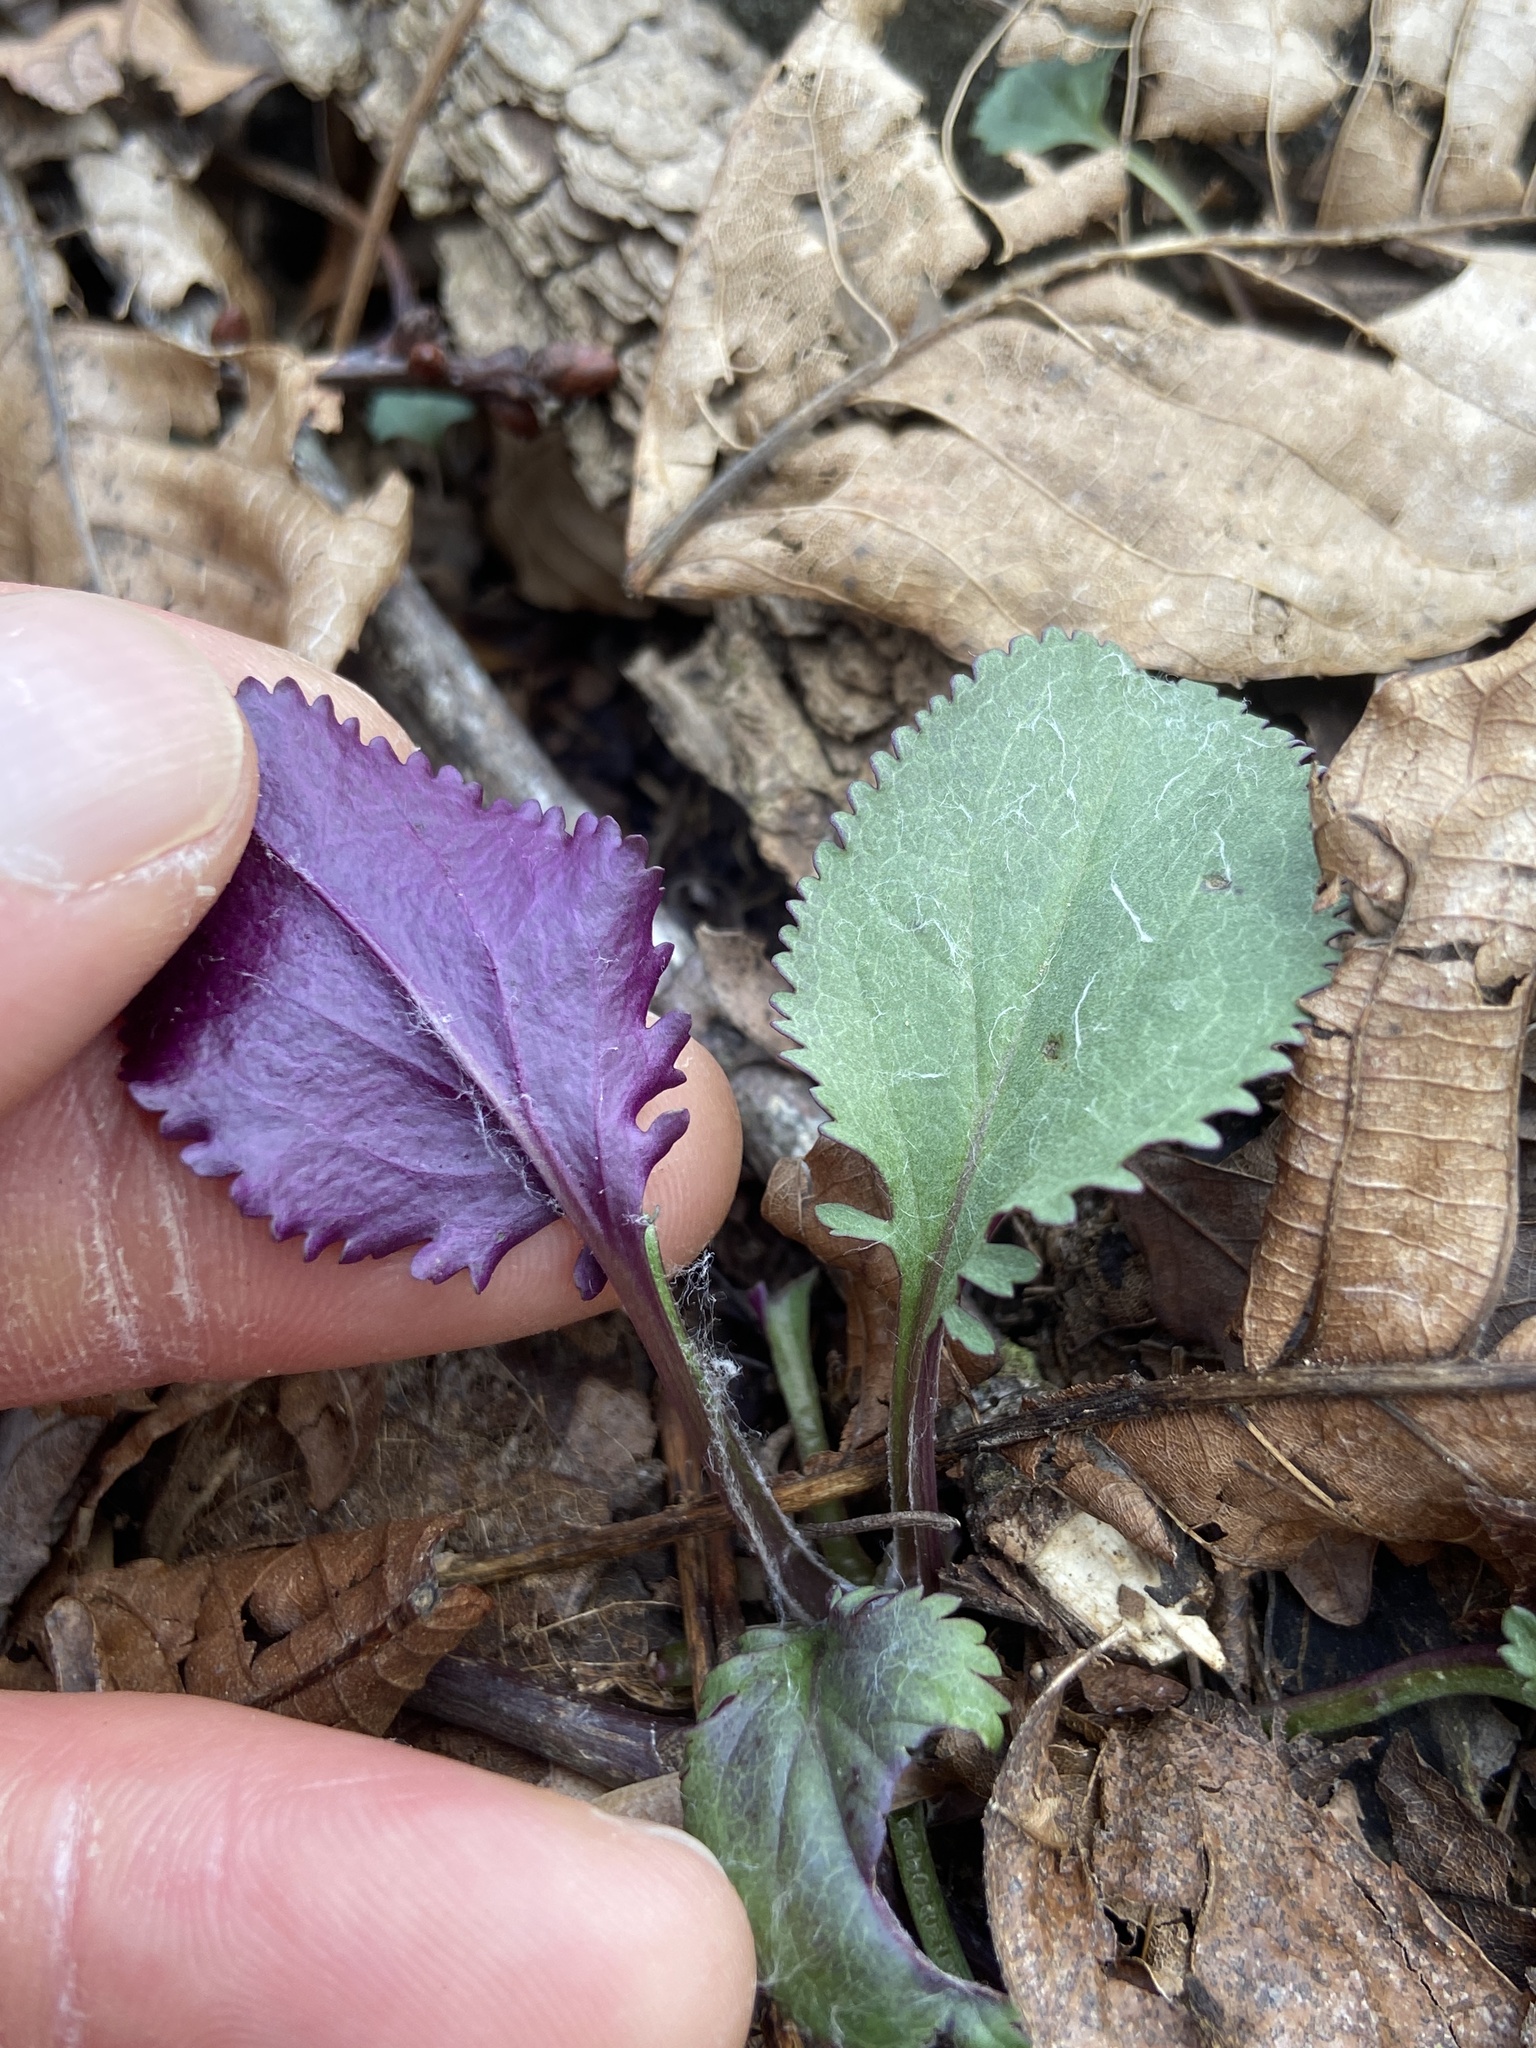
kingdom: Plantae
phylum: Tracheophyta
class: Magnoliopsida
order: Asterales
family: Asteraceae
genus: Packera
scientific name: Packera obovata
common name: Round-leaf ragwort
